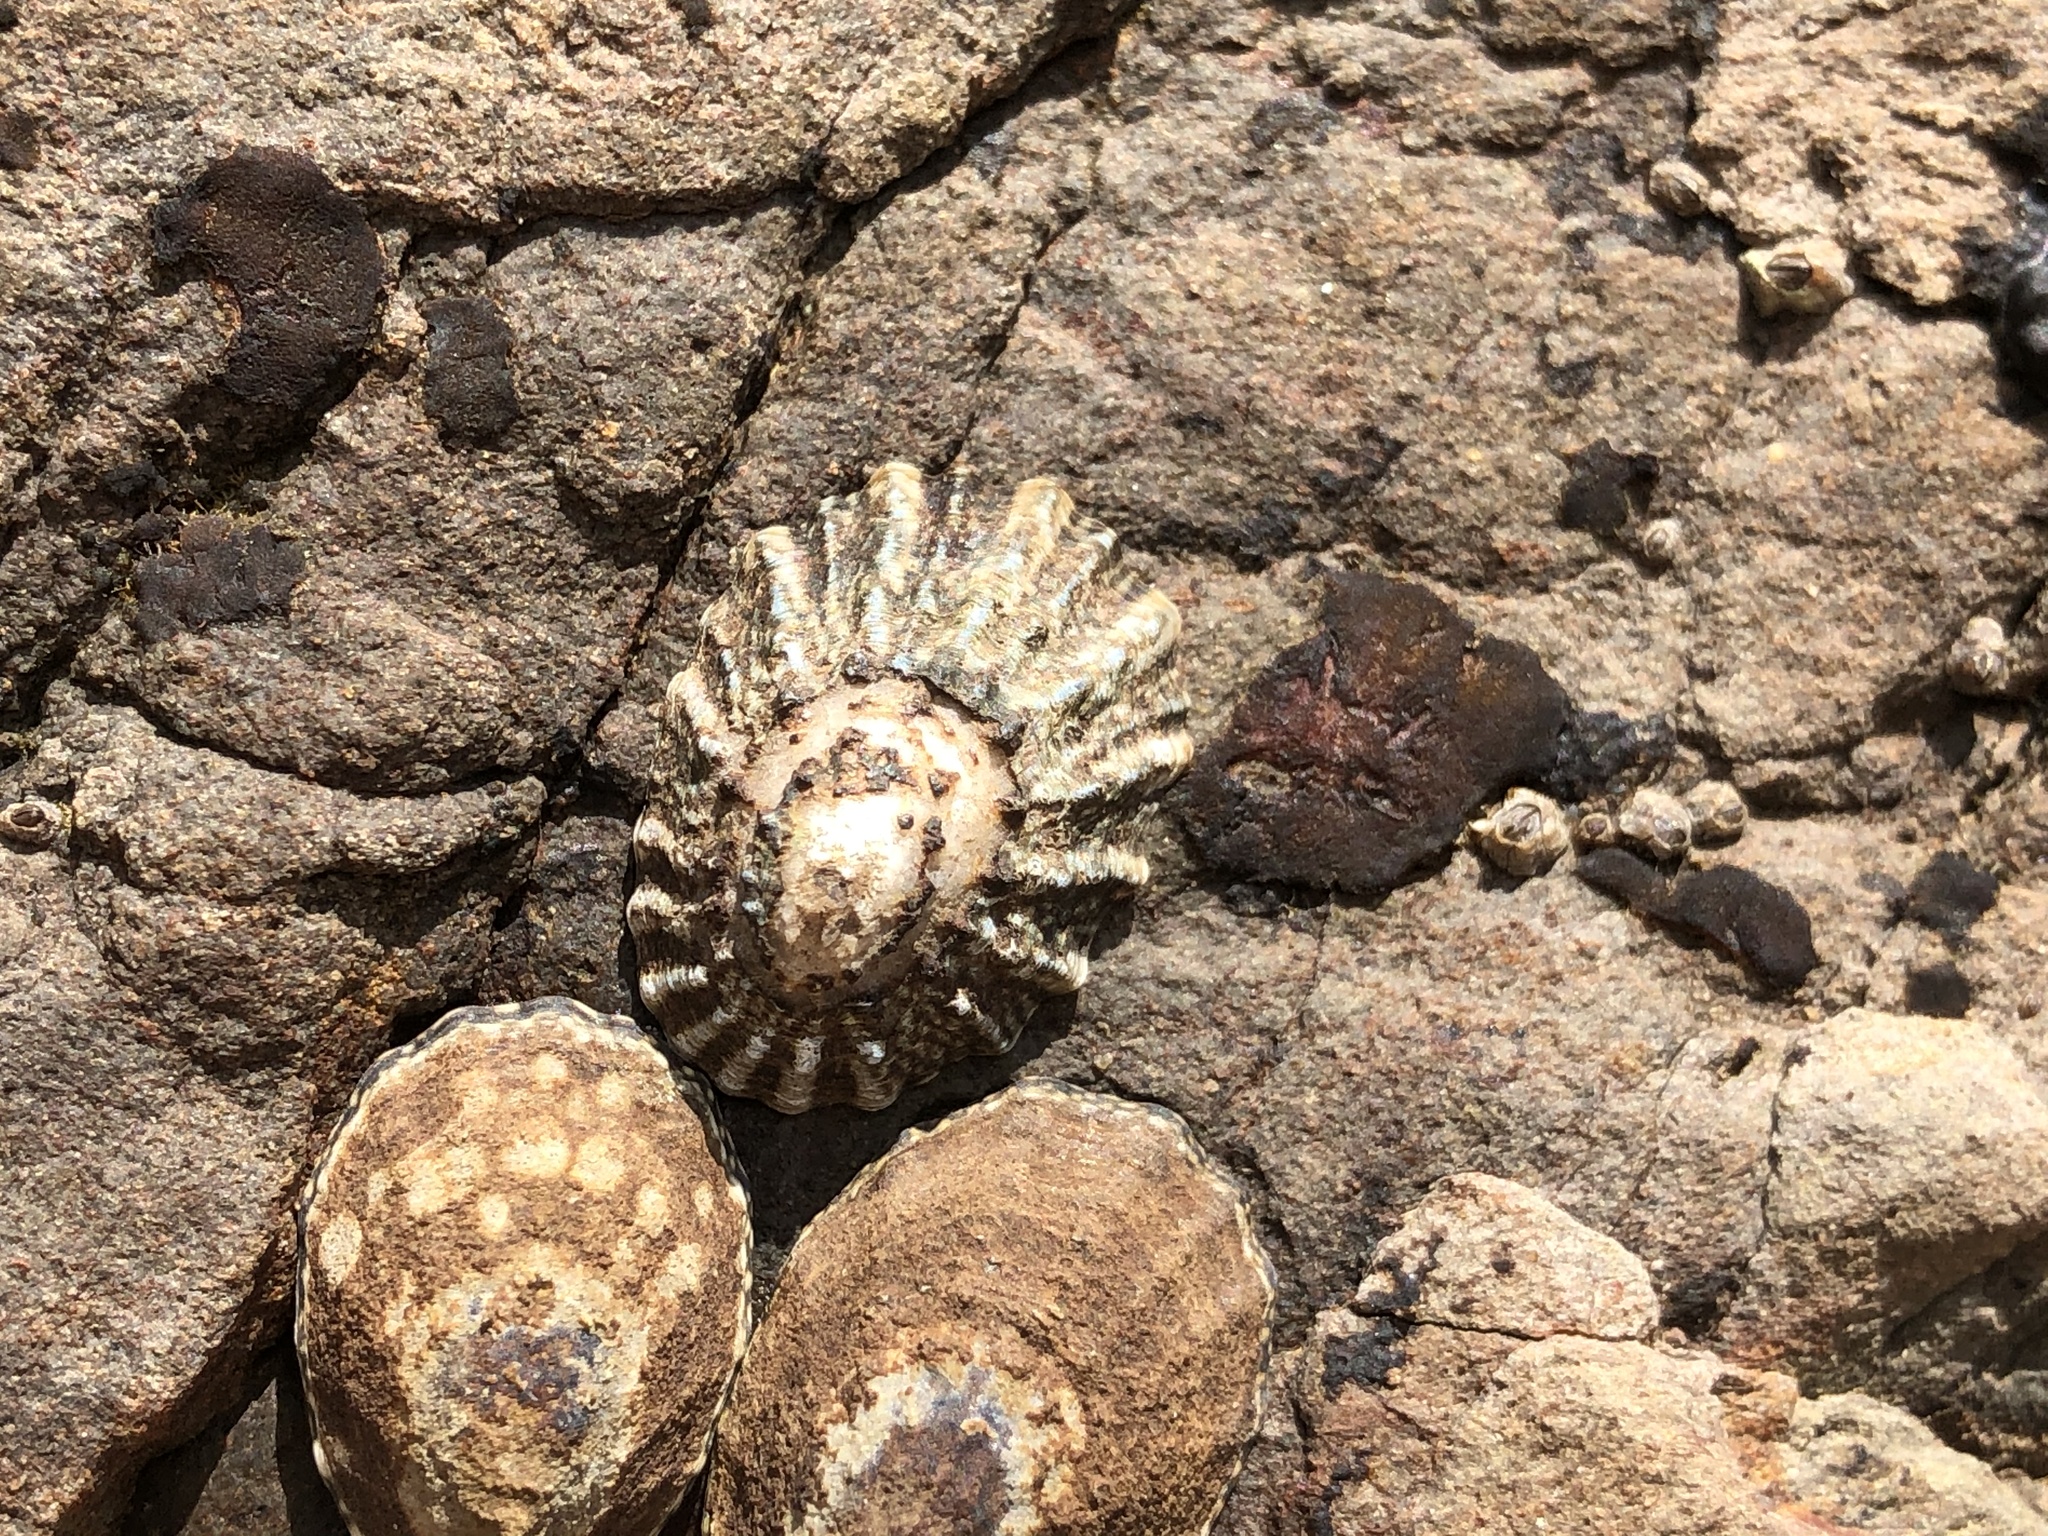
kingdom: Animalia
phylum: Mollusca
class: Gastropoda
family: Lottiidae
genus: Lottia
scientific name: Lottia scabra
